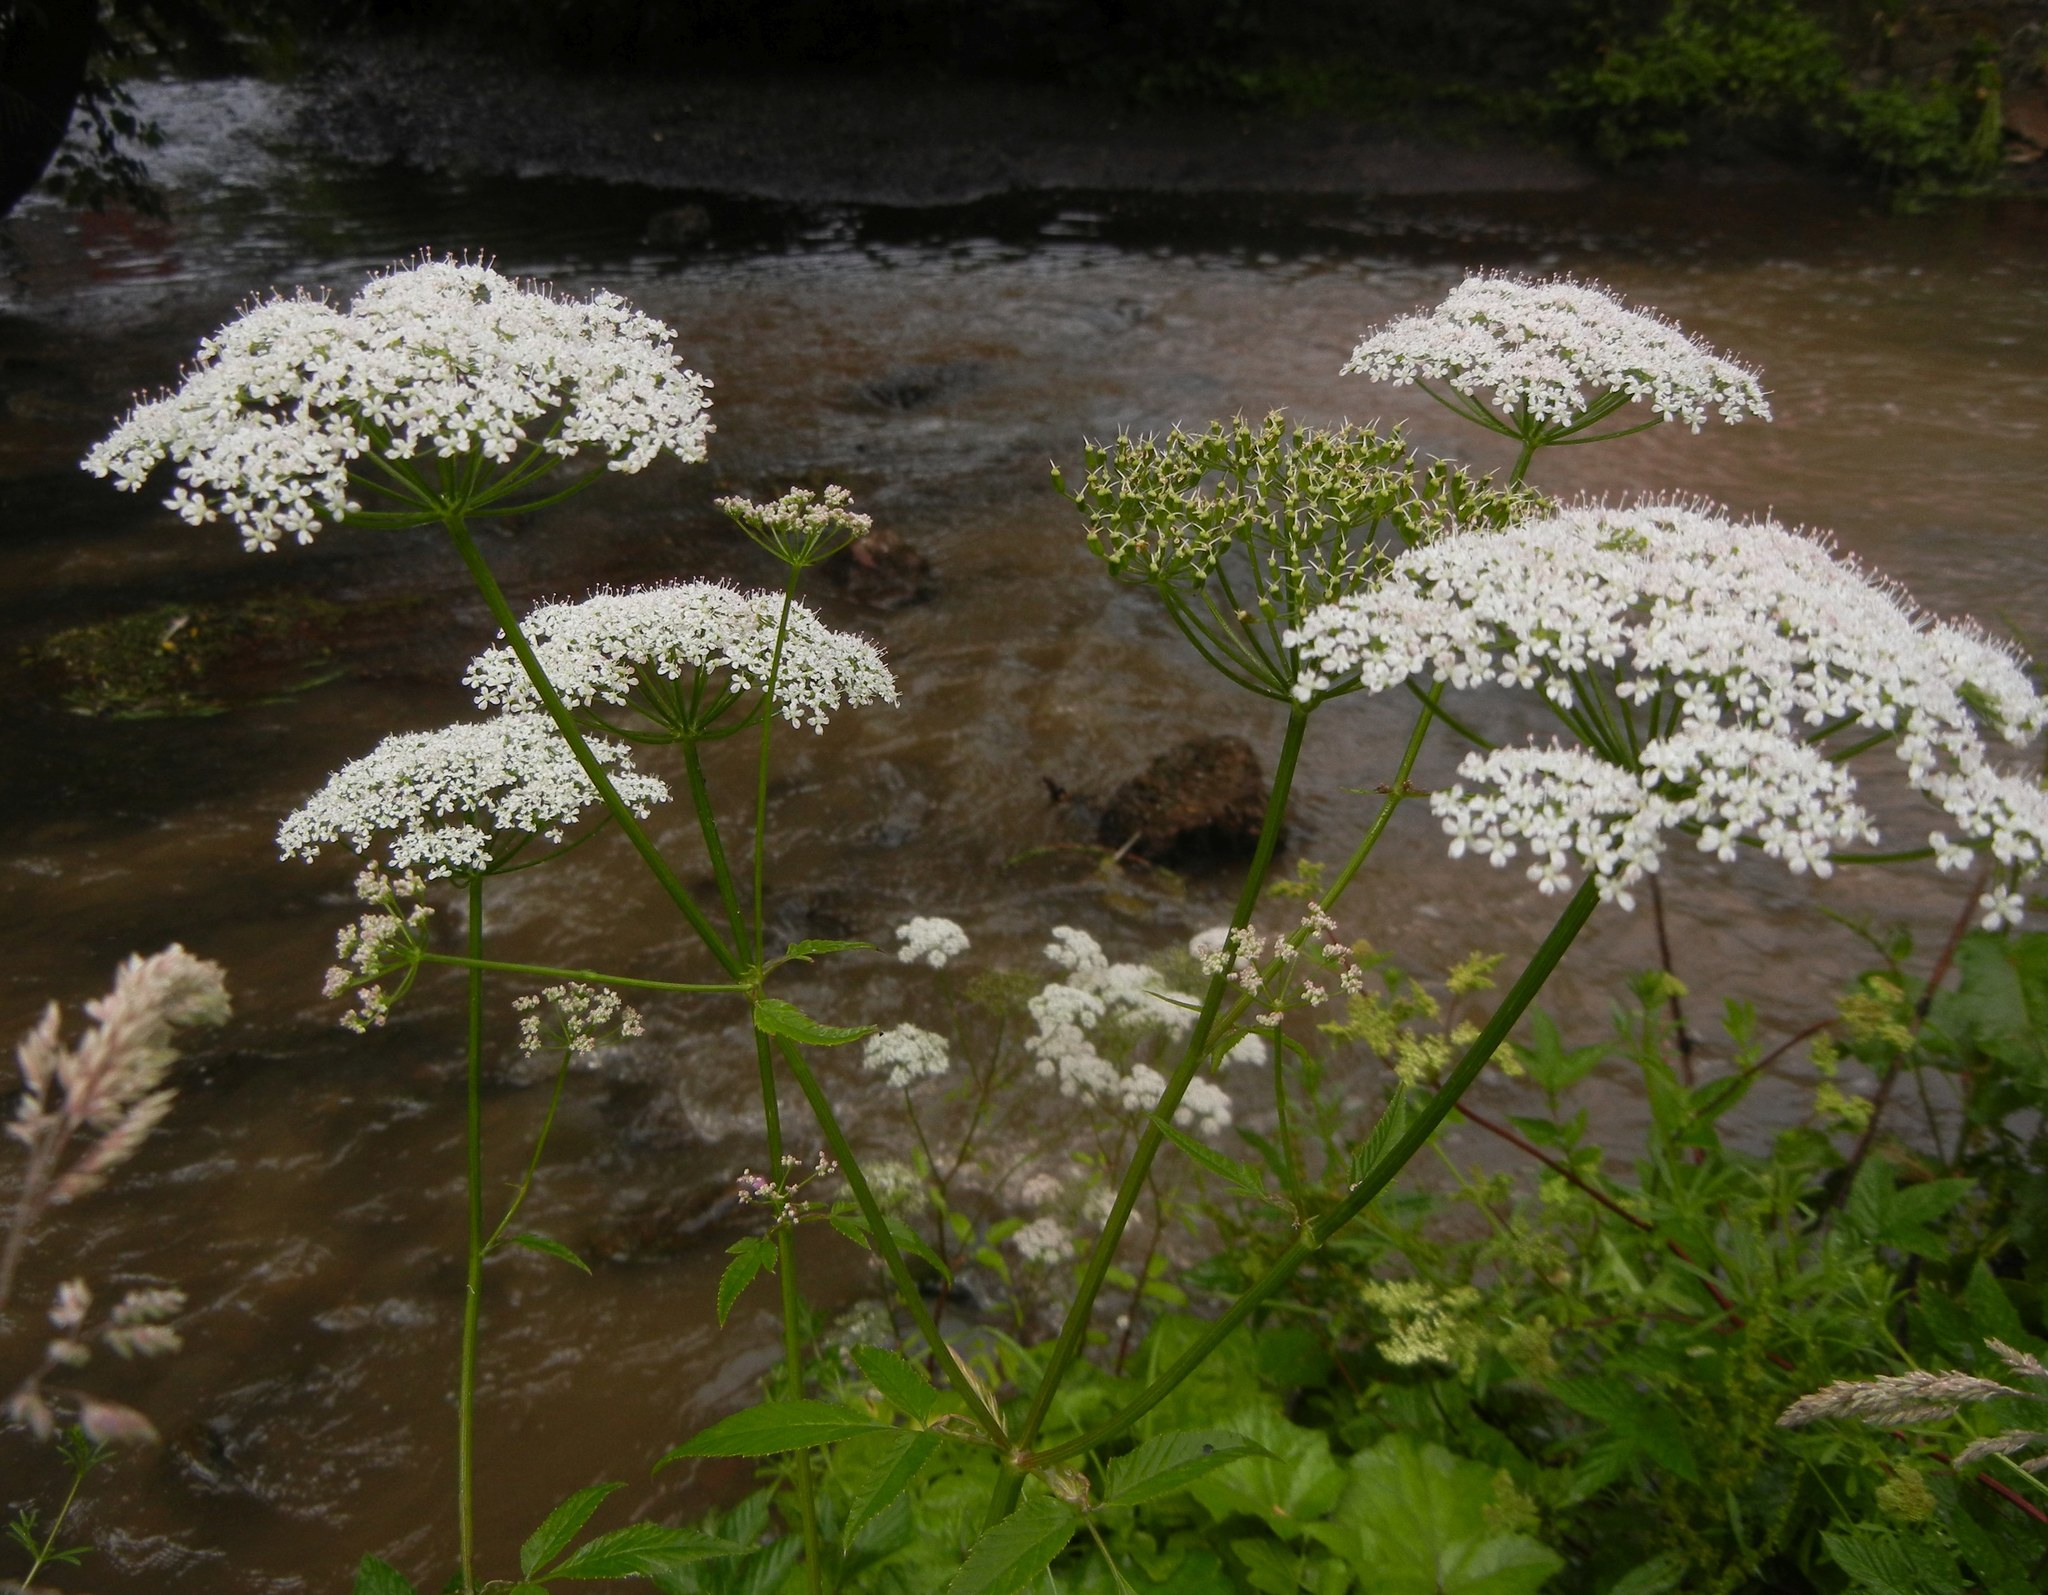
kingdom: Plantae
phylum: Tracheophyta
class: Magnoliopsida
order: Apiales
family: Apiaceae
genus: Aegopodium
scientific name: Aegopodium podagraria
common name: Ground-elder
